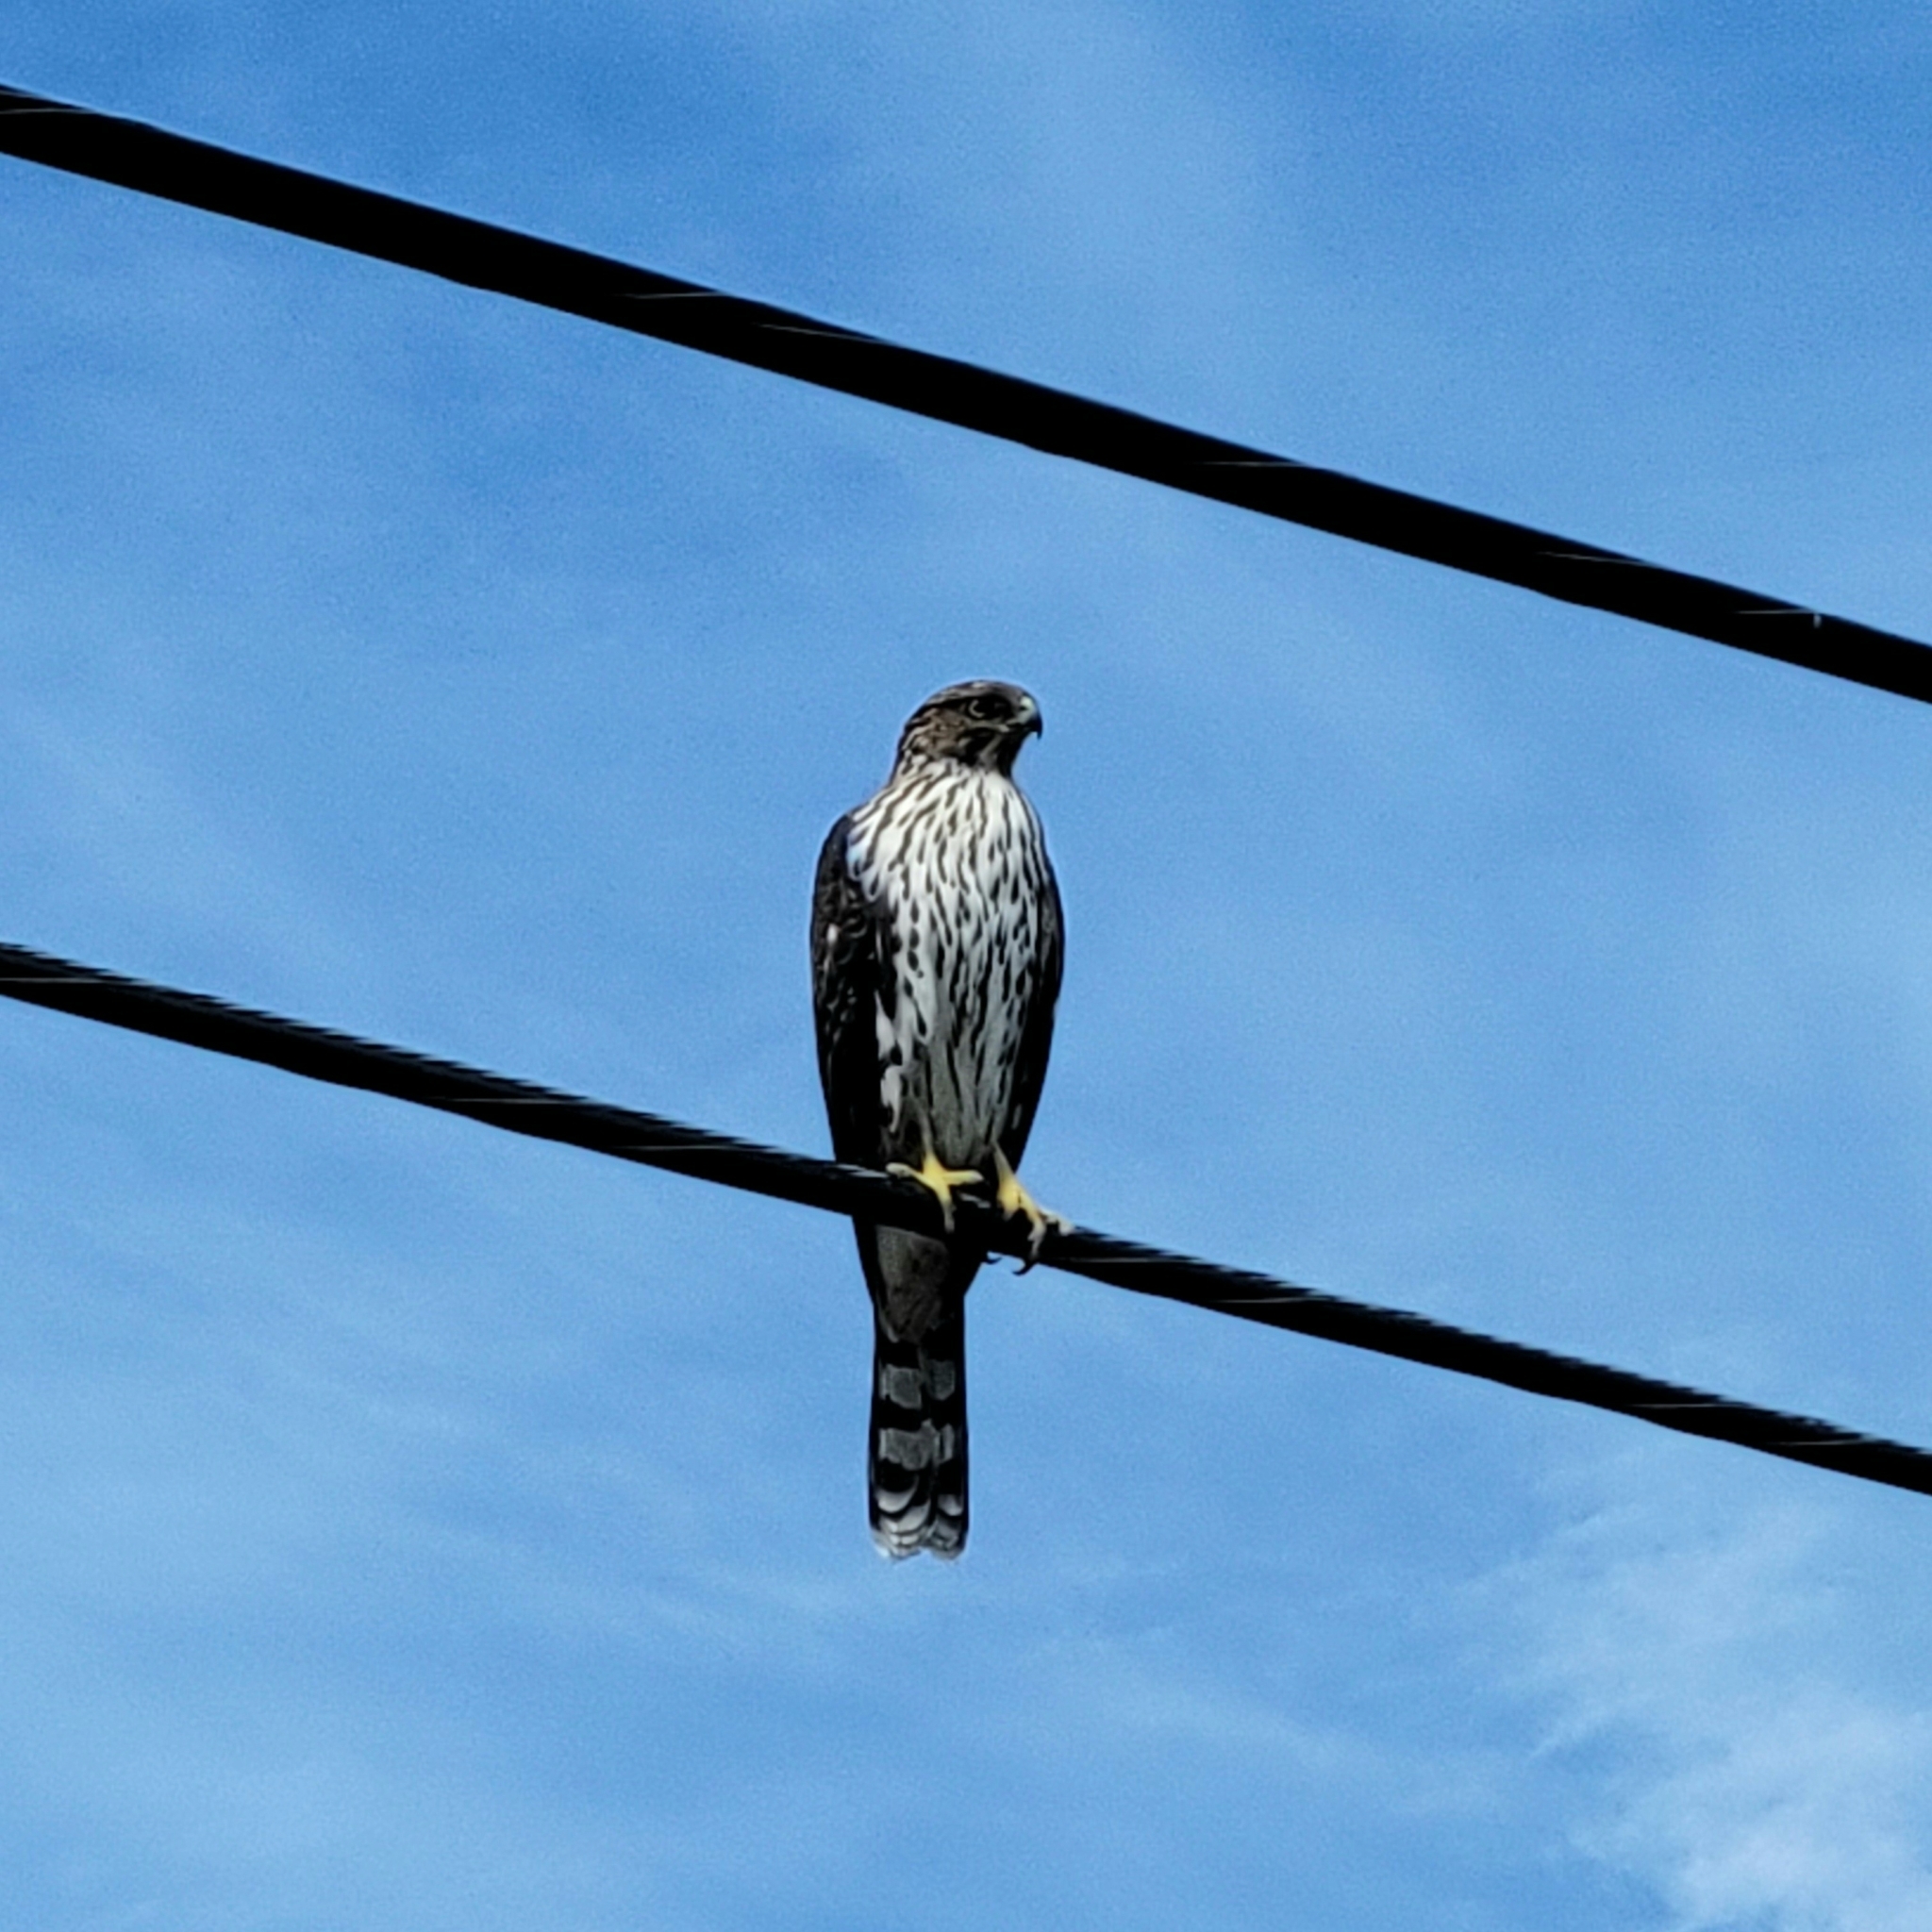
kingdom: Animalia
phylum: Chordata
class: Aves
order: Accipitriformes
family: Accipitridae
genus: Accipiter
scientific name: Accipiter cooperii
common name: Cooper's hawk
